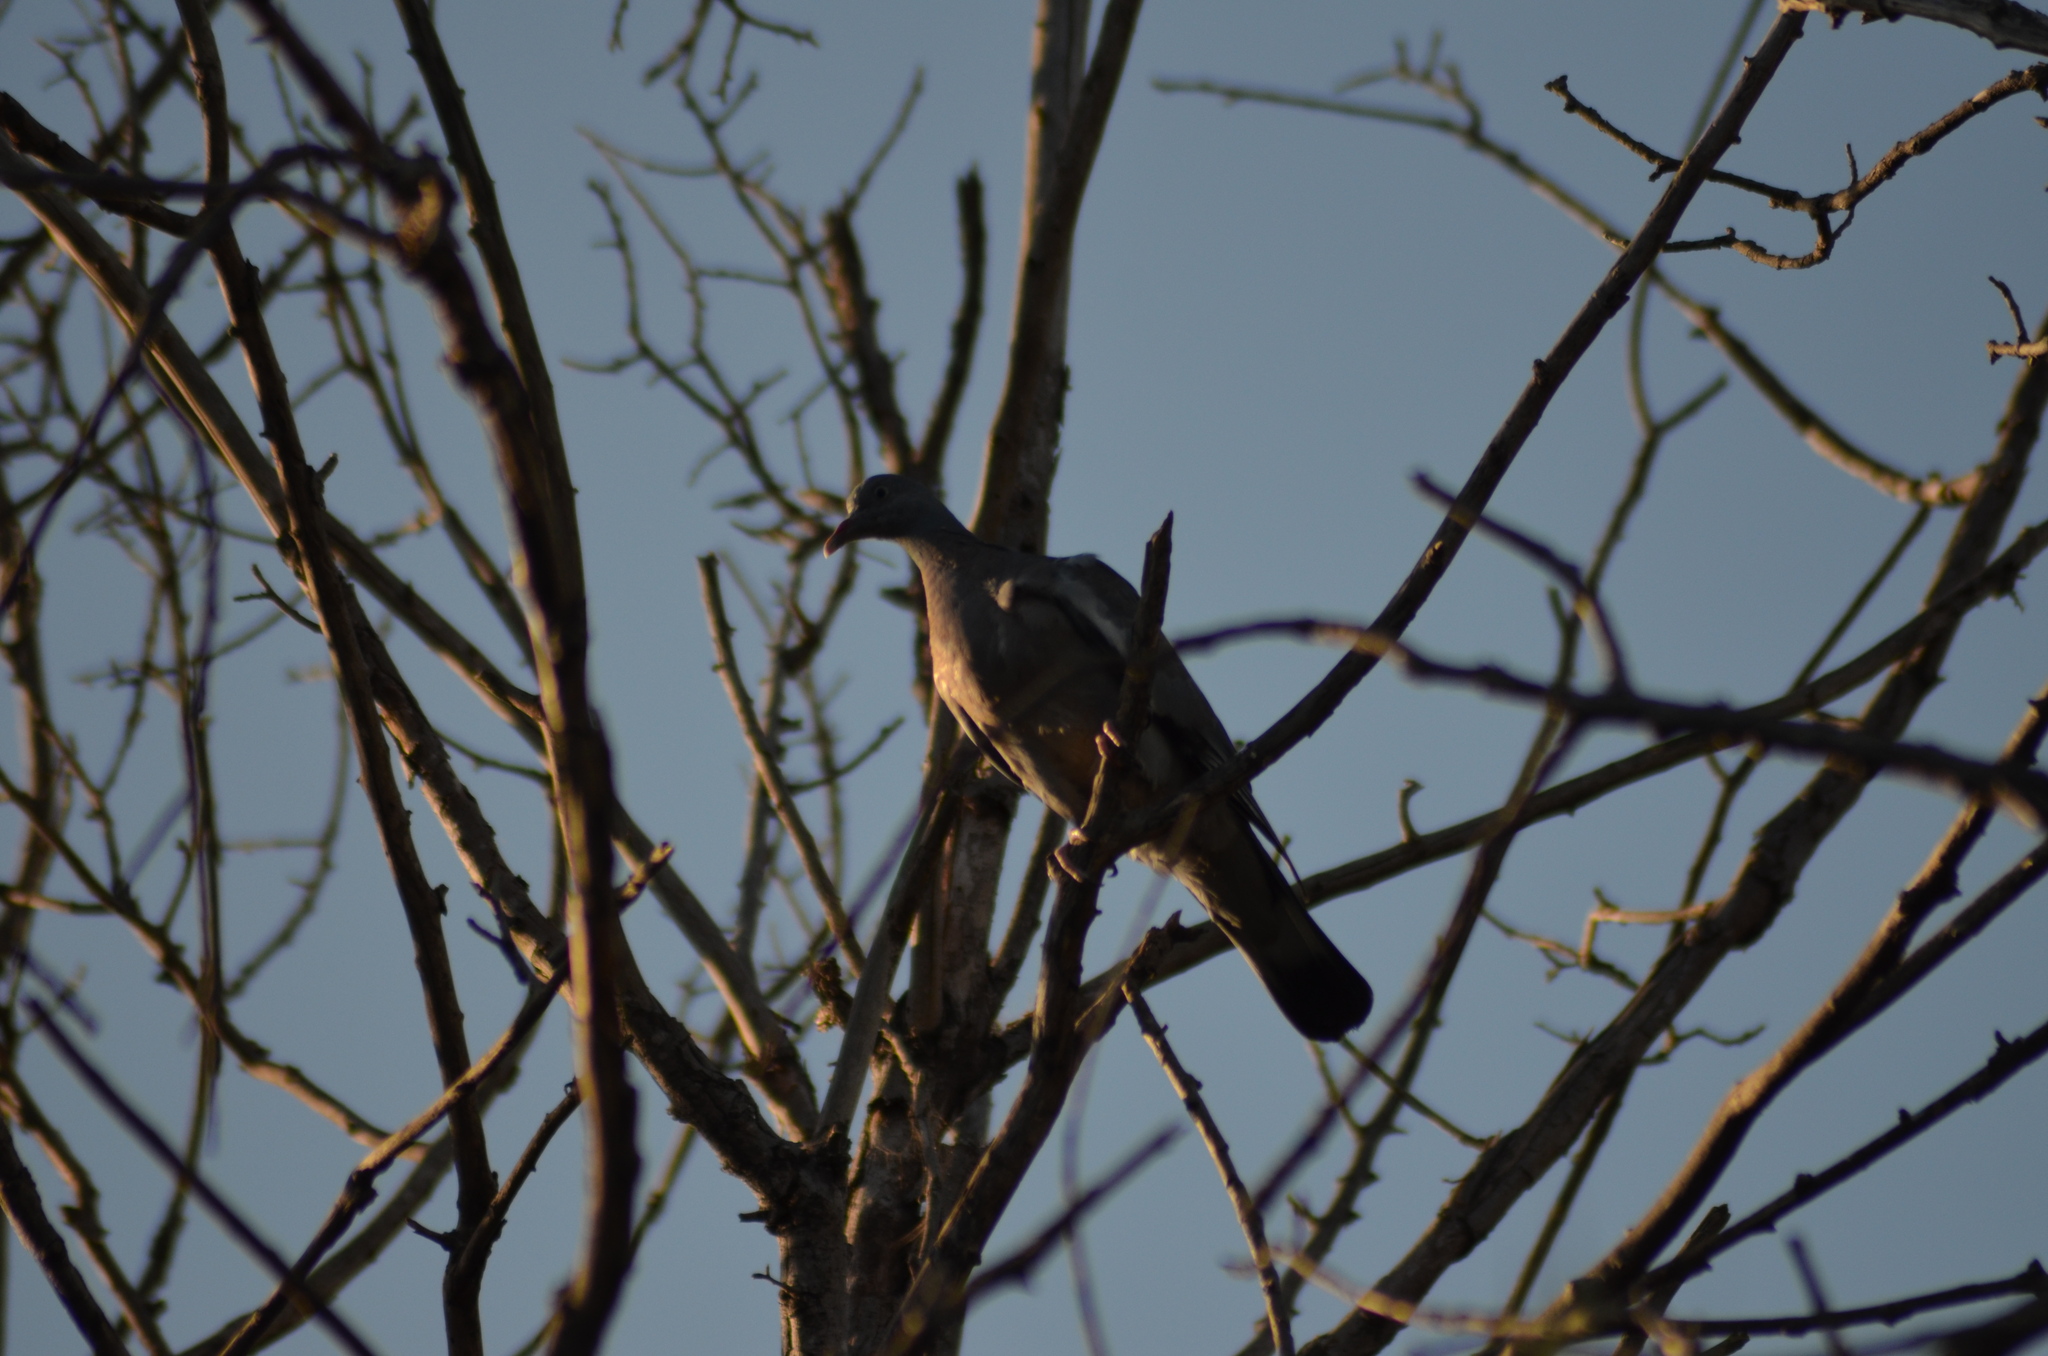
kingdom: Animalia
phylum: Chordata
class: Aves
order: Columbiformes
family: Columbidae
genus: Columba
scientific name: Columba palumbus
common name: Common wood pigeon
